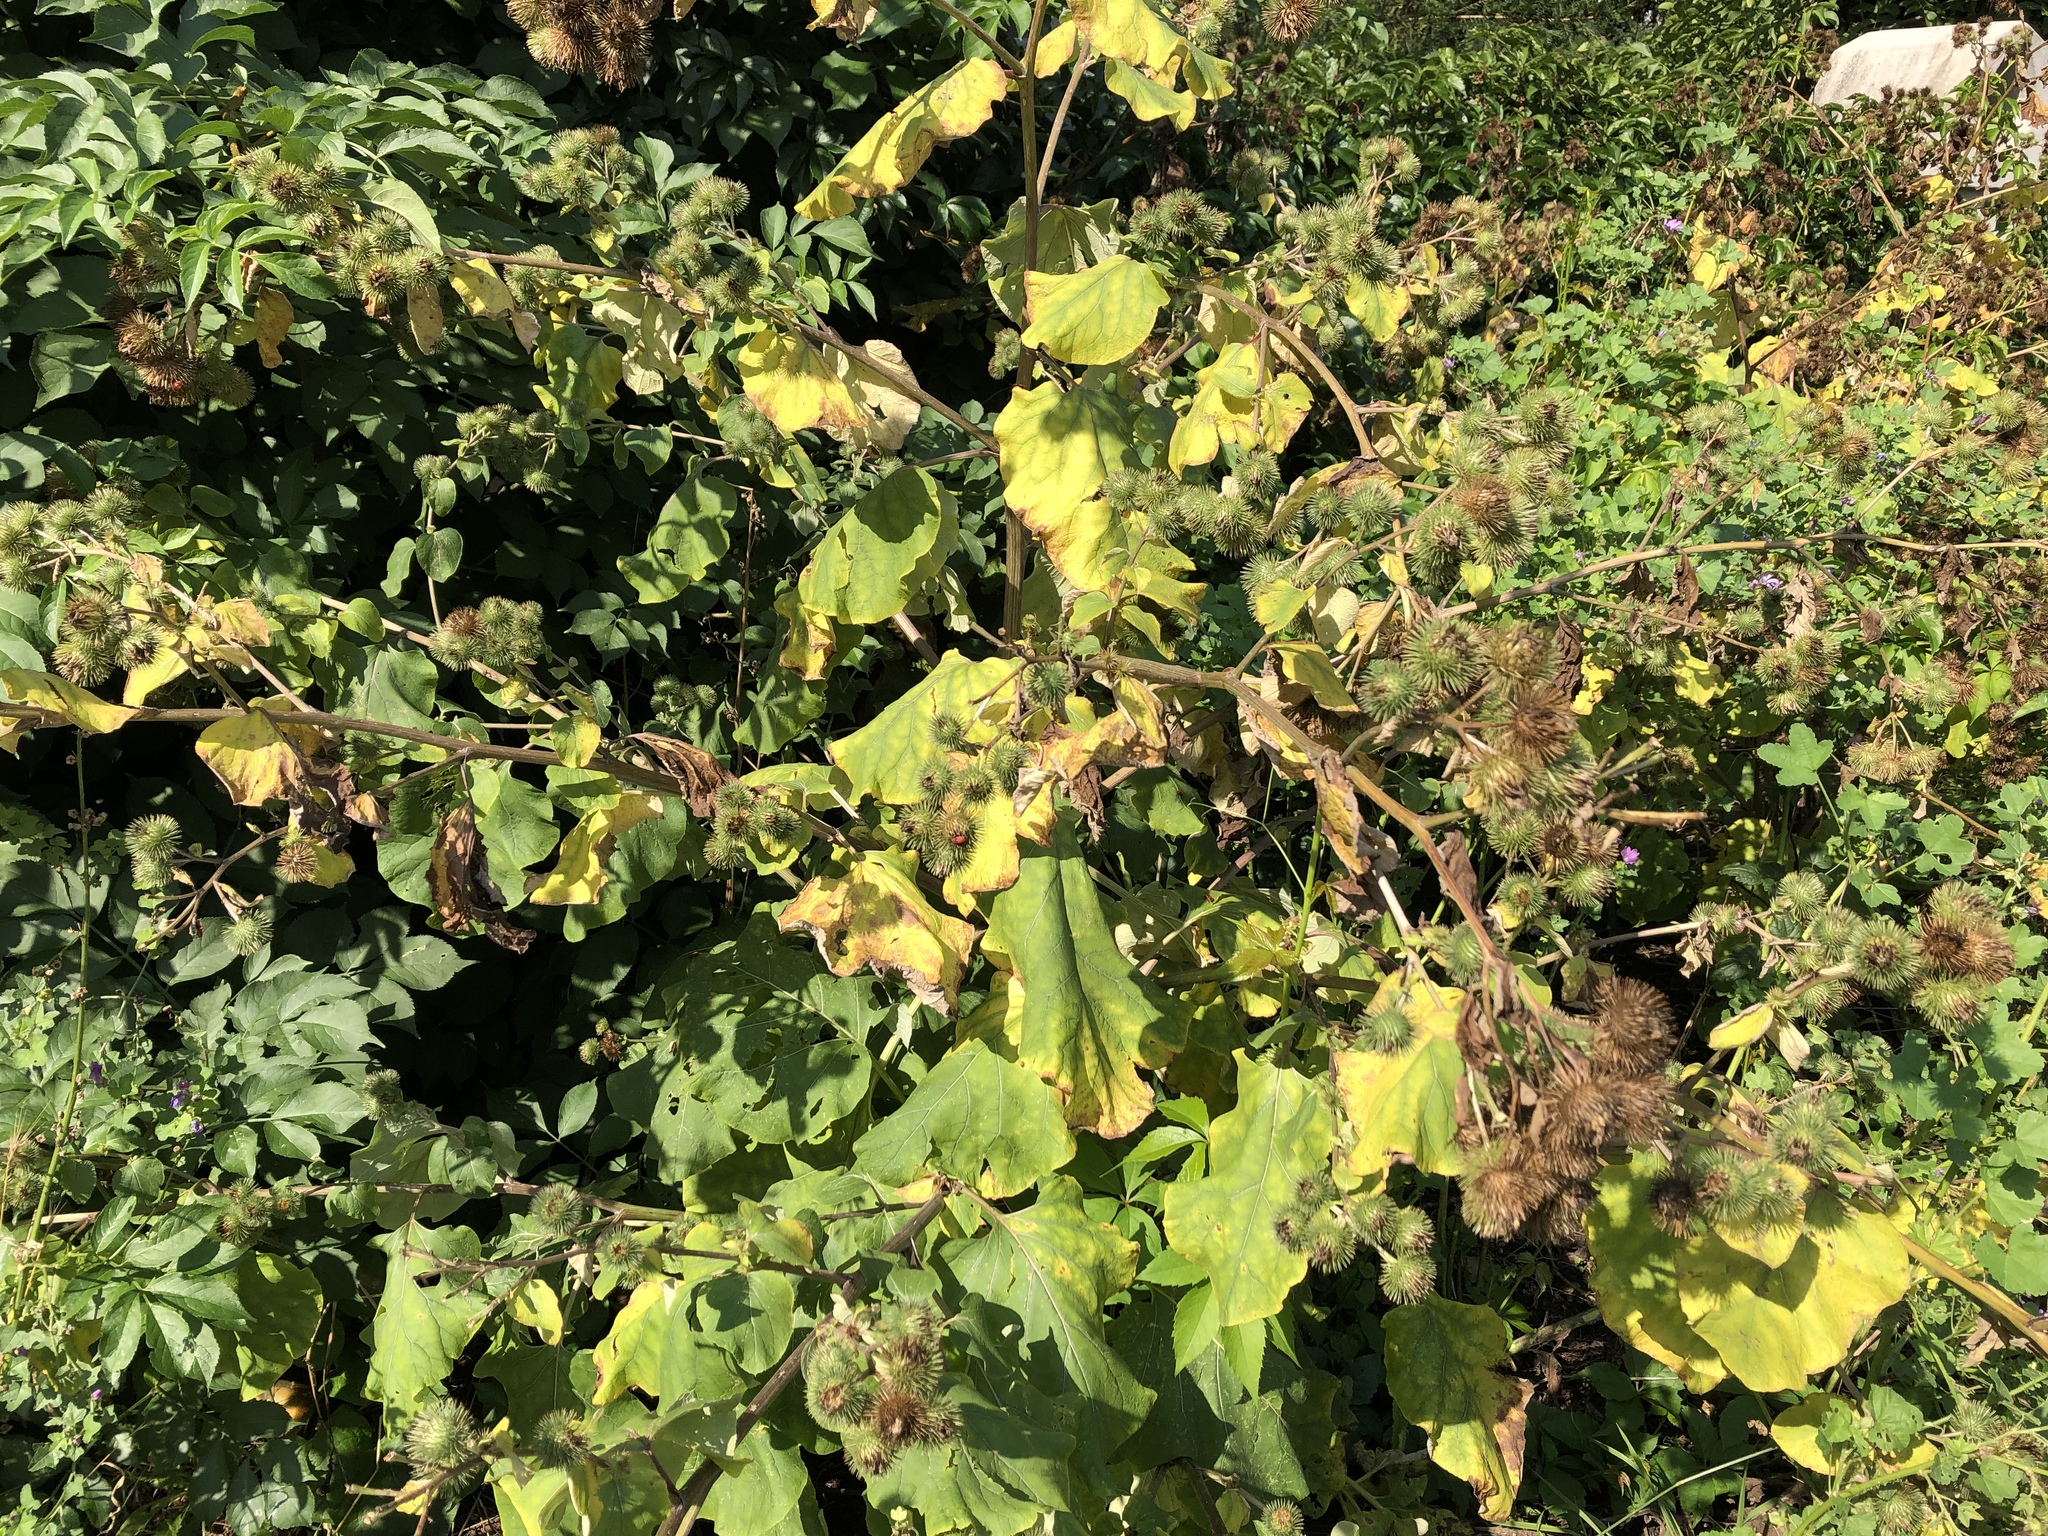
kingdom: Plantae
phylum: Tracheophyta
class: Magnoliopsida
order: Asterales
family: Asteraceae
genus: Arctium
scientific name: Arctium lappa
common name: Greater burdock
